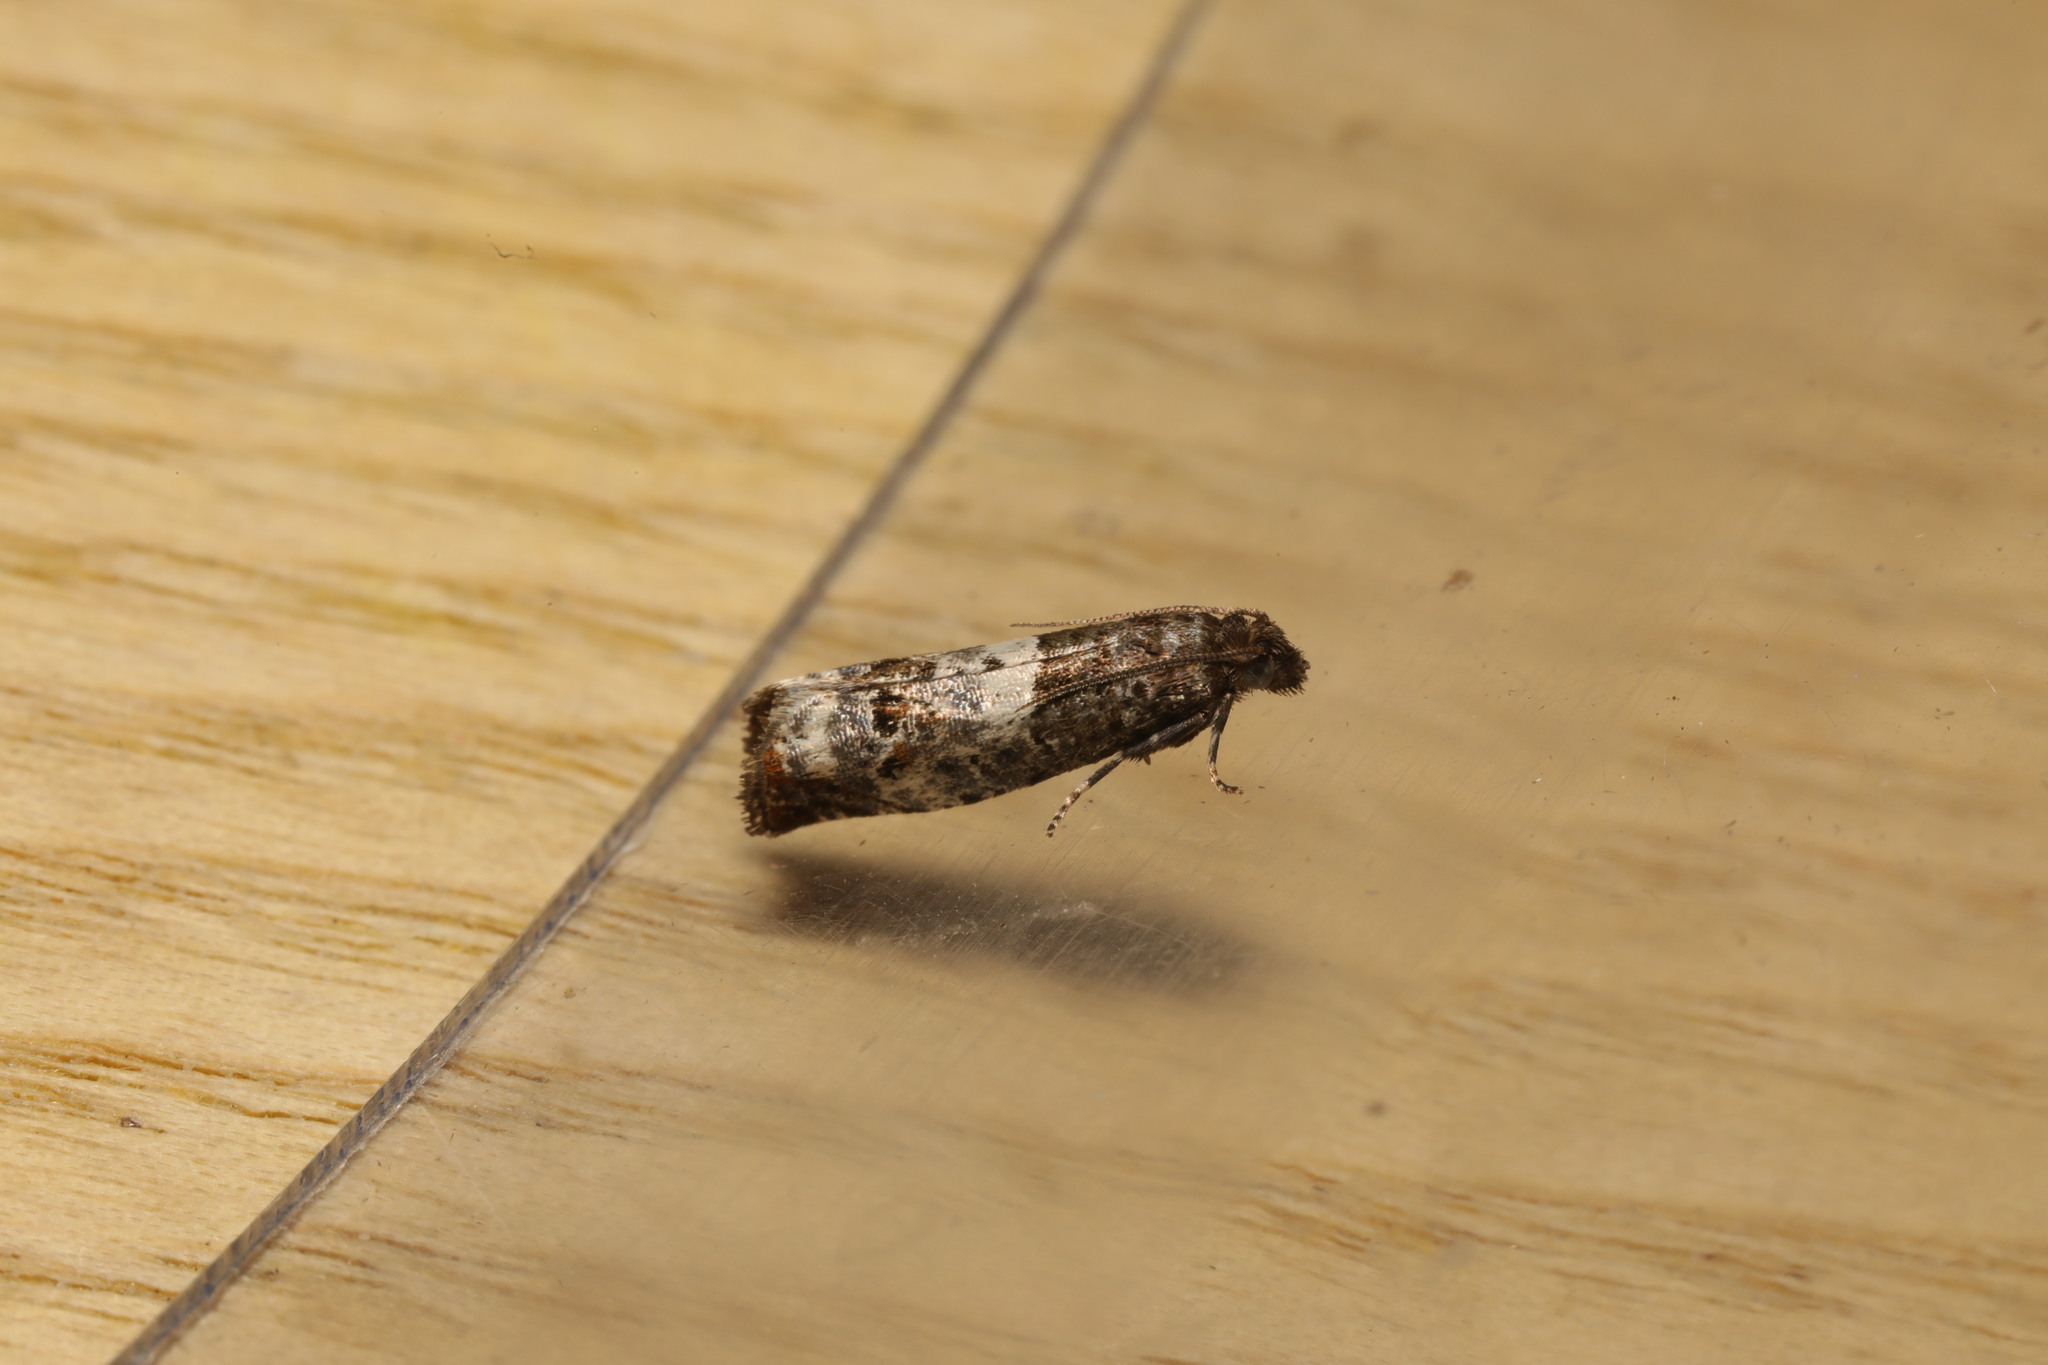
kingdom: Animalia
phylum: Arthropoda
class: Insecta
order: Lepidoptera
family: Tortricidae
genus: Notocelia
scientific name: Notocelia rosaecolana
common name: Common rose bell
